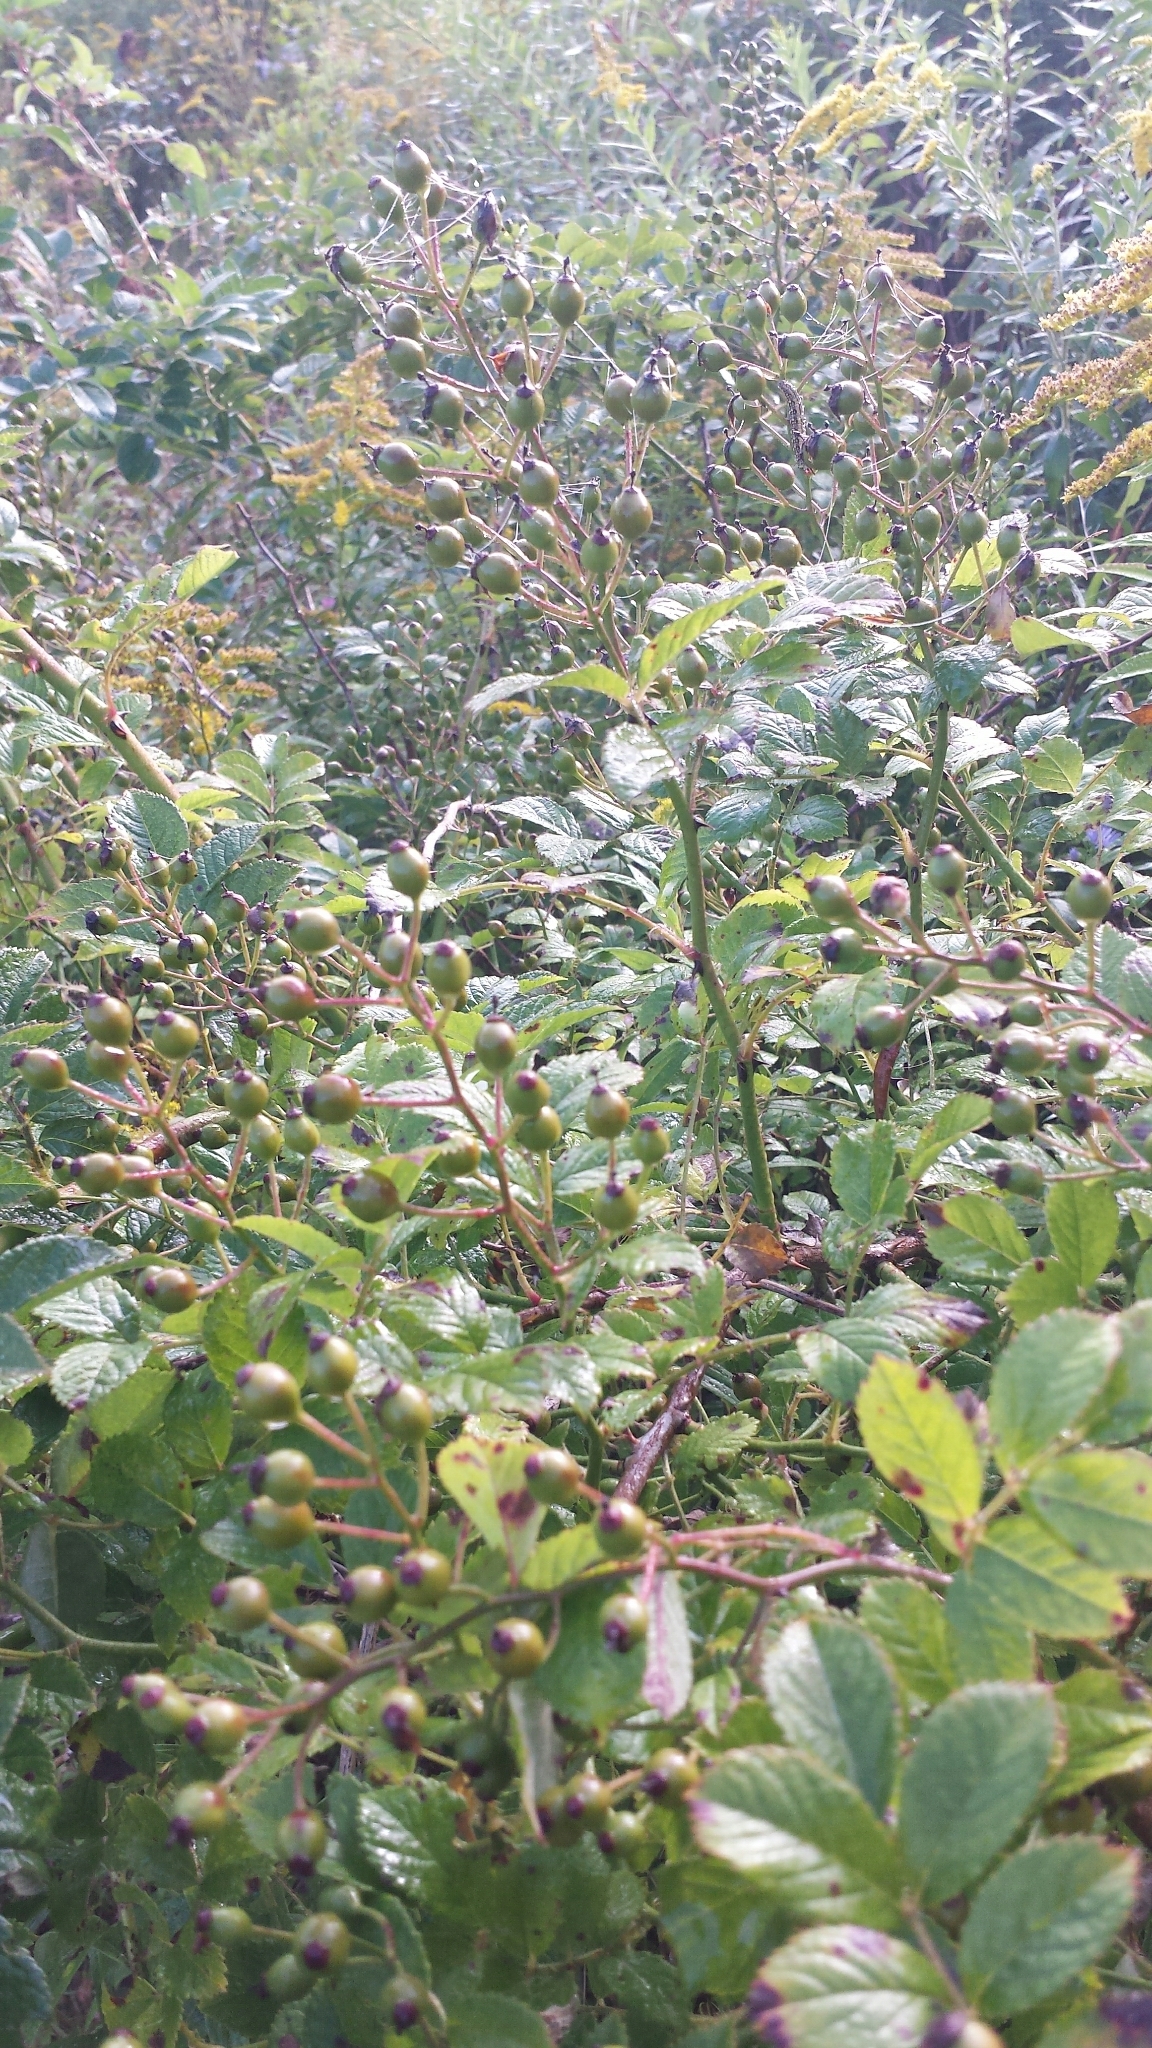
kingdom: Plantae
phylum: Tracheophyta
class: Magnoliopsida
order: Rosales
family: Rosaceae
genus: Rosa
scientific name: Rosa multiflora
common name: Multiflora rose
